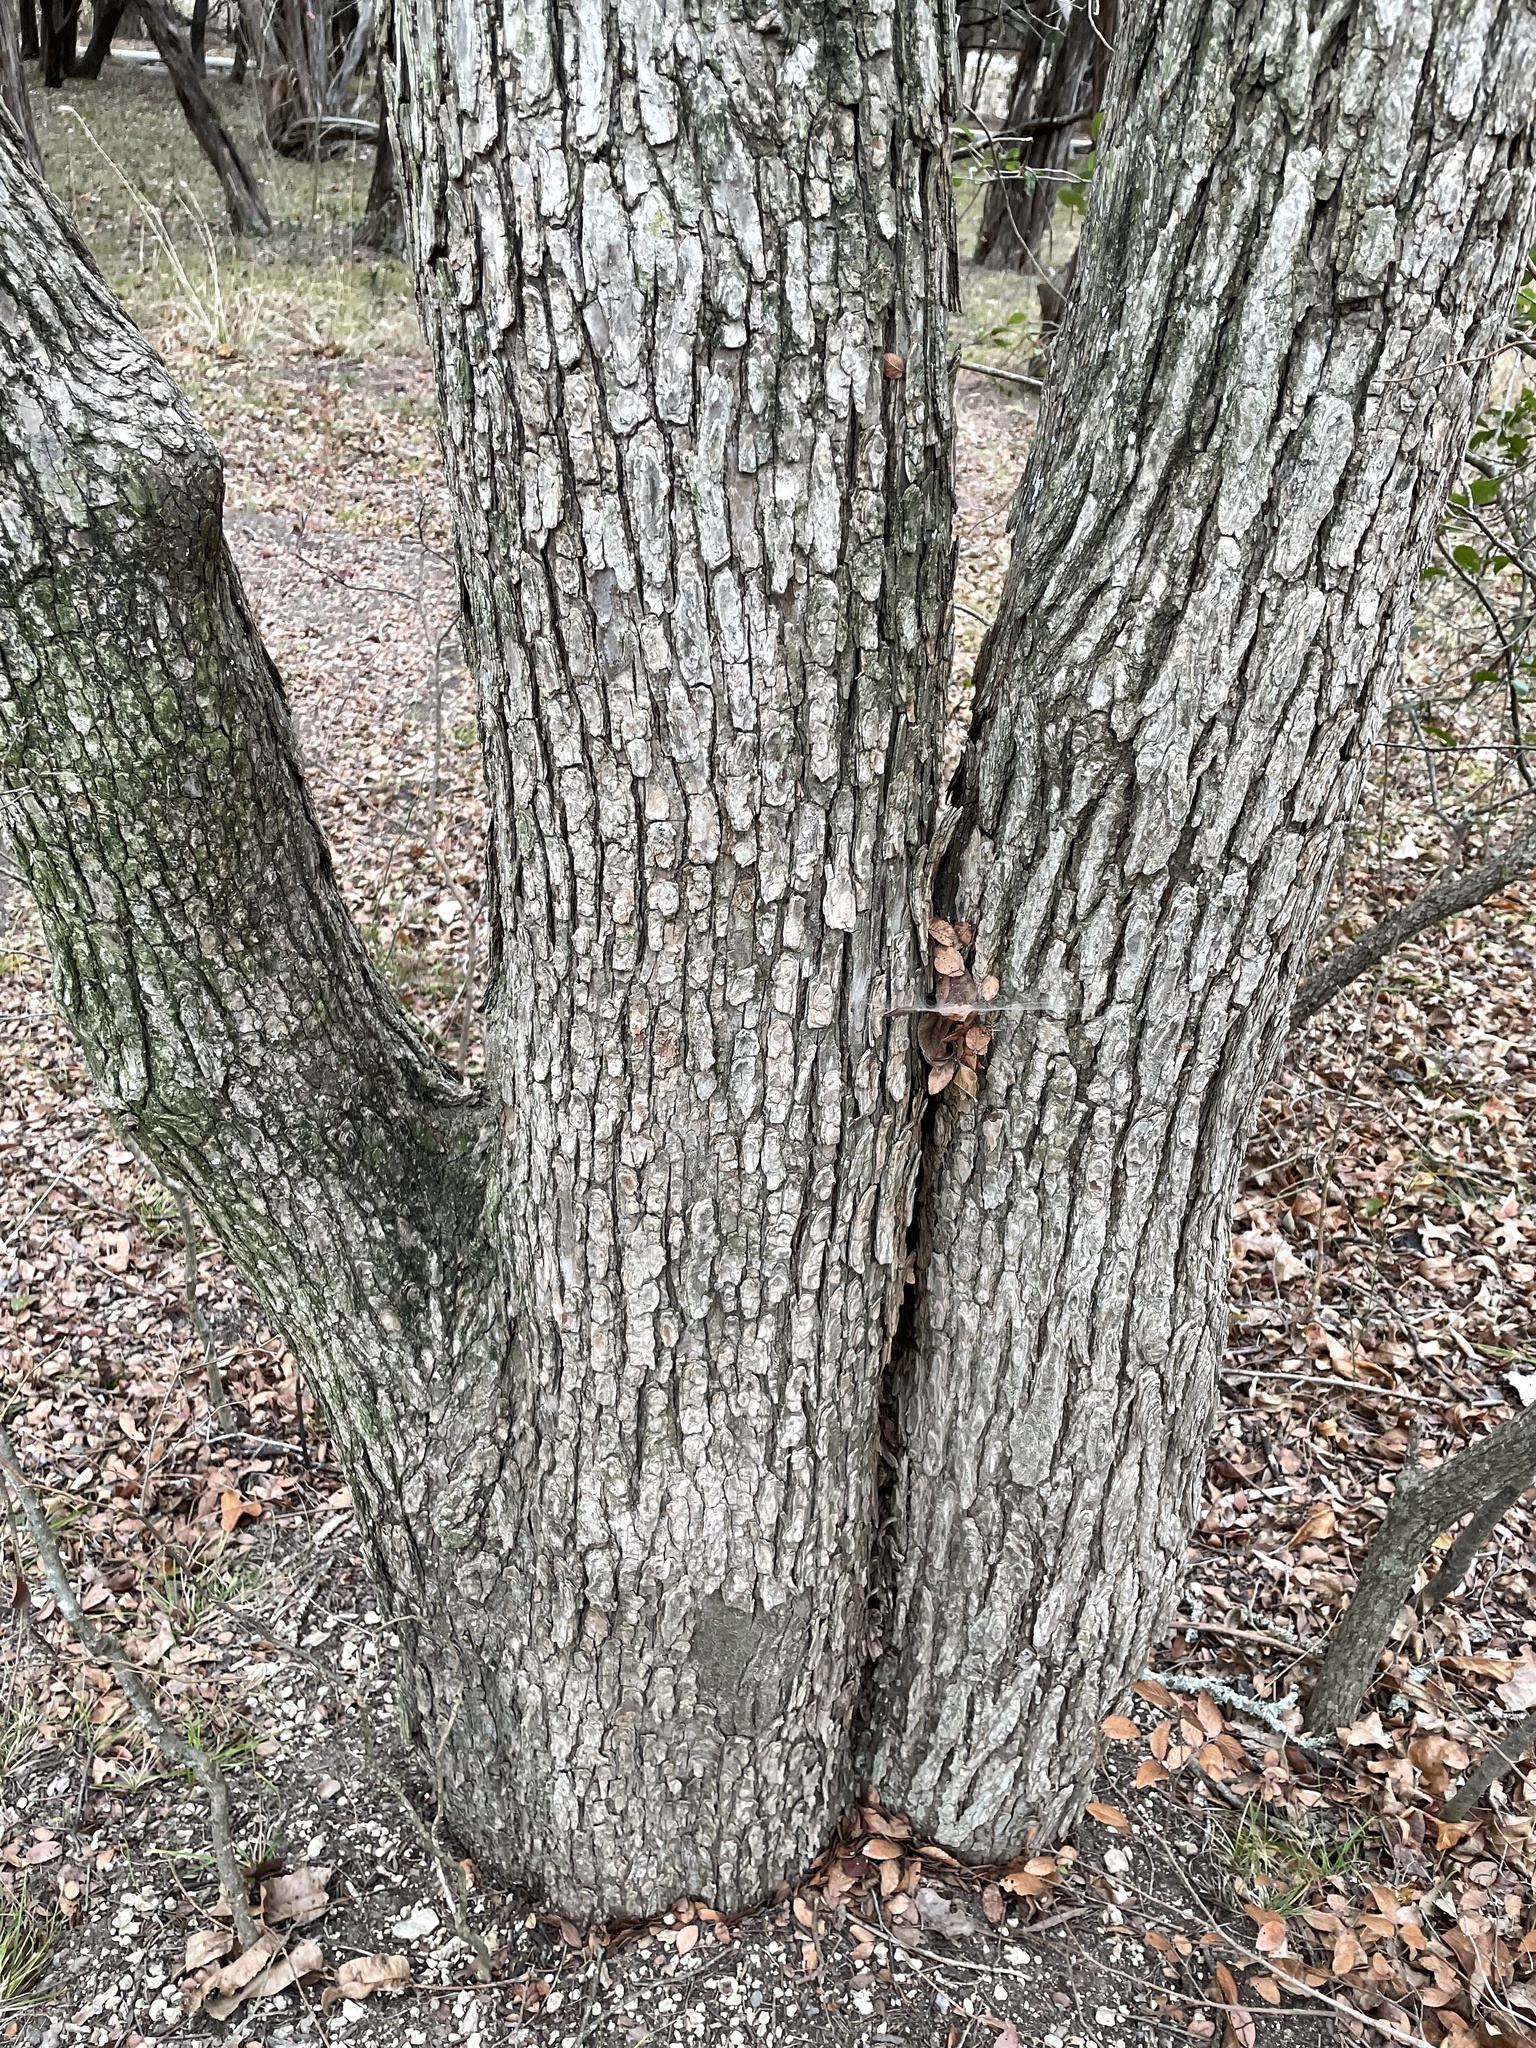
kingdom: Plantae
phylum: Tracheophyta
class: Magnoliopsida
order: Rosales
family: Ulmaceae
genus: Ulmus
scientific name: Ulmus crassifolia
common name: Basket elm
